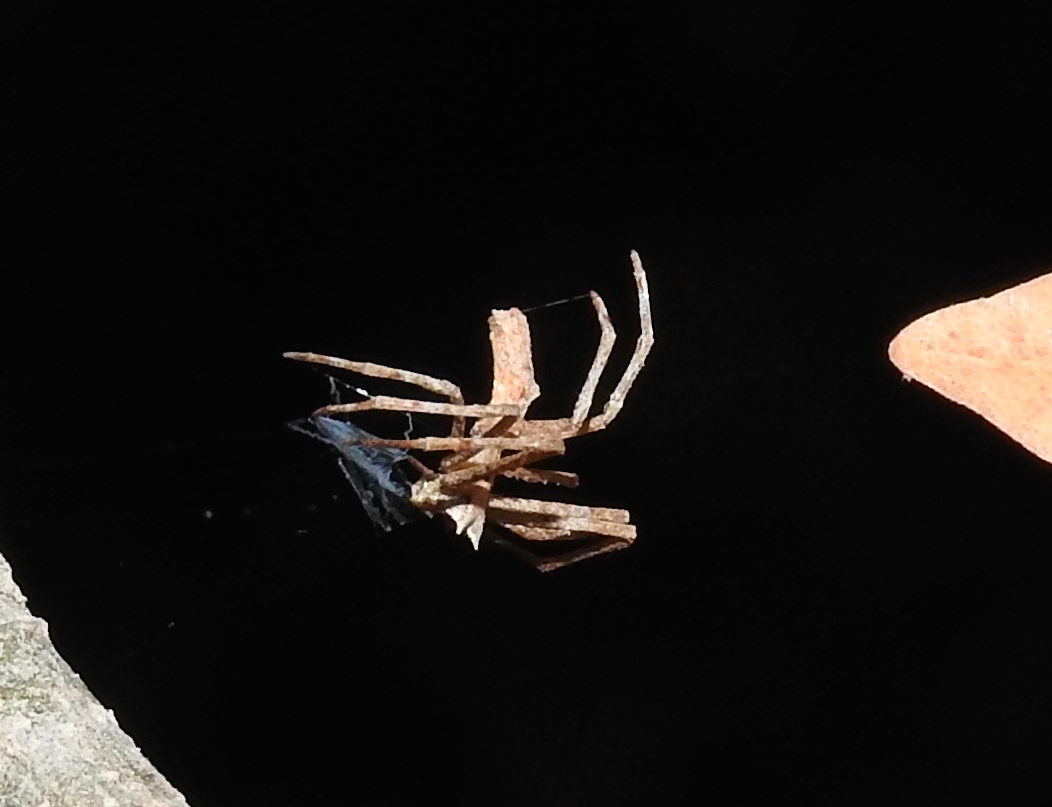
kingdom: Animalia
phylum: Arthropoda
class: Arachnida
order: Araneae
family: Deinopidae
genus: Deinopis
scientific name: Deinopis aurita
